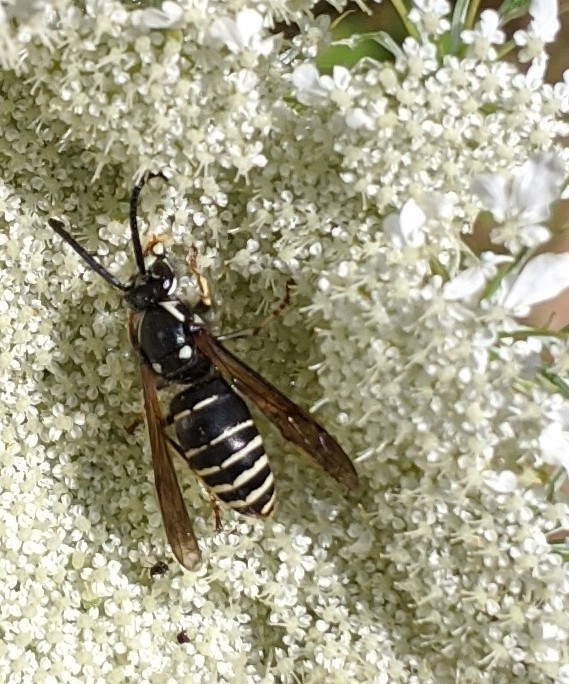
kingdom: Animalia
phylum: Arthropoda
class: Insecta
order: Hymenoptera
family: Vespidae
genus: Dolichovespula
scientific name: Dolichovespula adulterina
